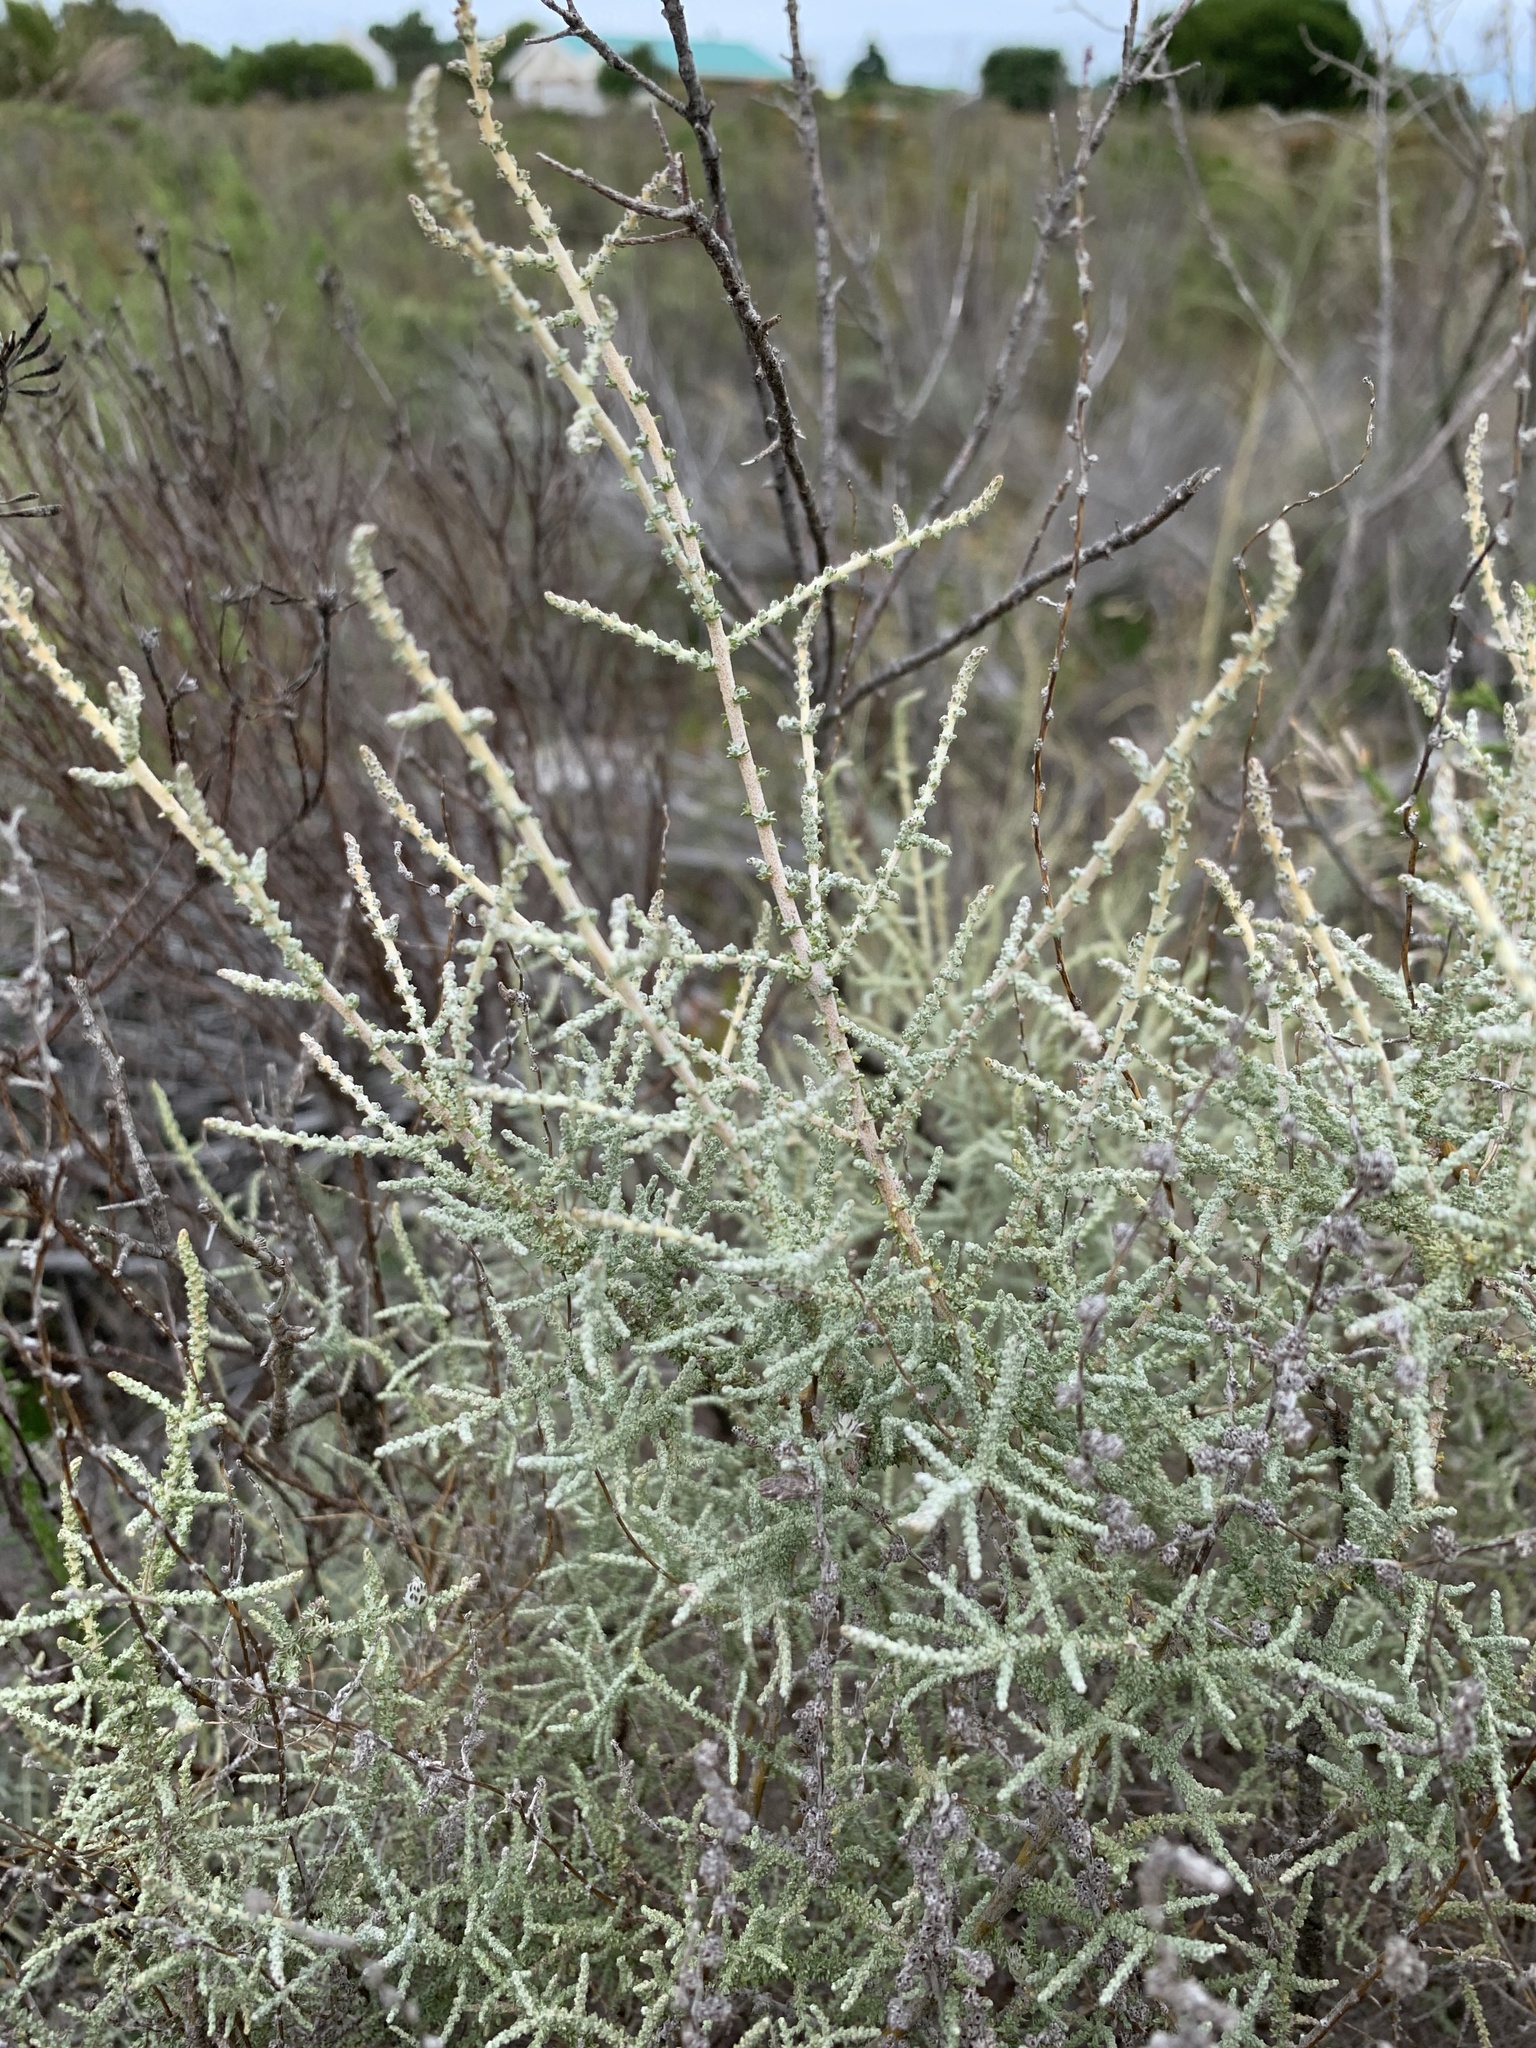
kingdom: Plantae
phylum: Tracheophyta
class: Magnoliopsida
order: Asterales
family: Asteraceae
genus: Seriphium
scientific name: Seriphium plumosum
